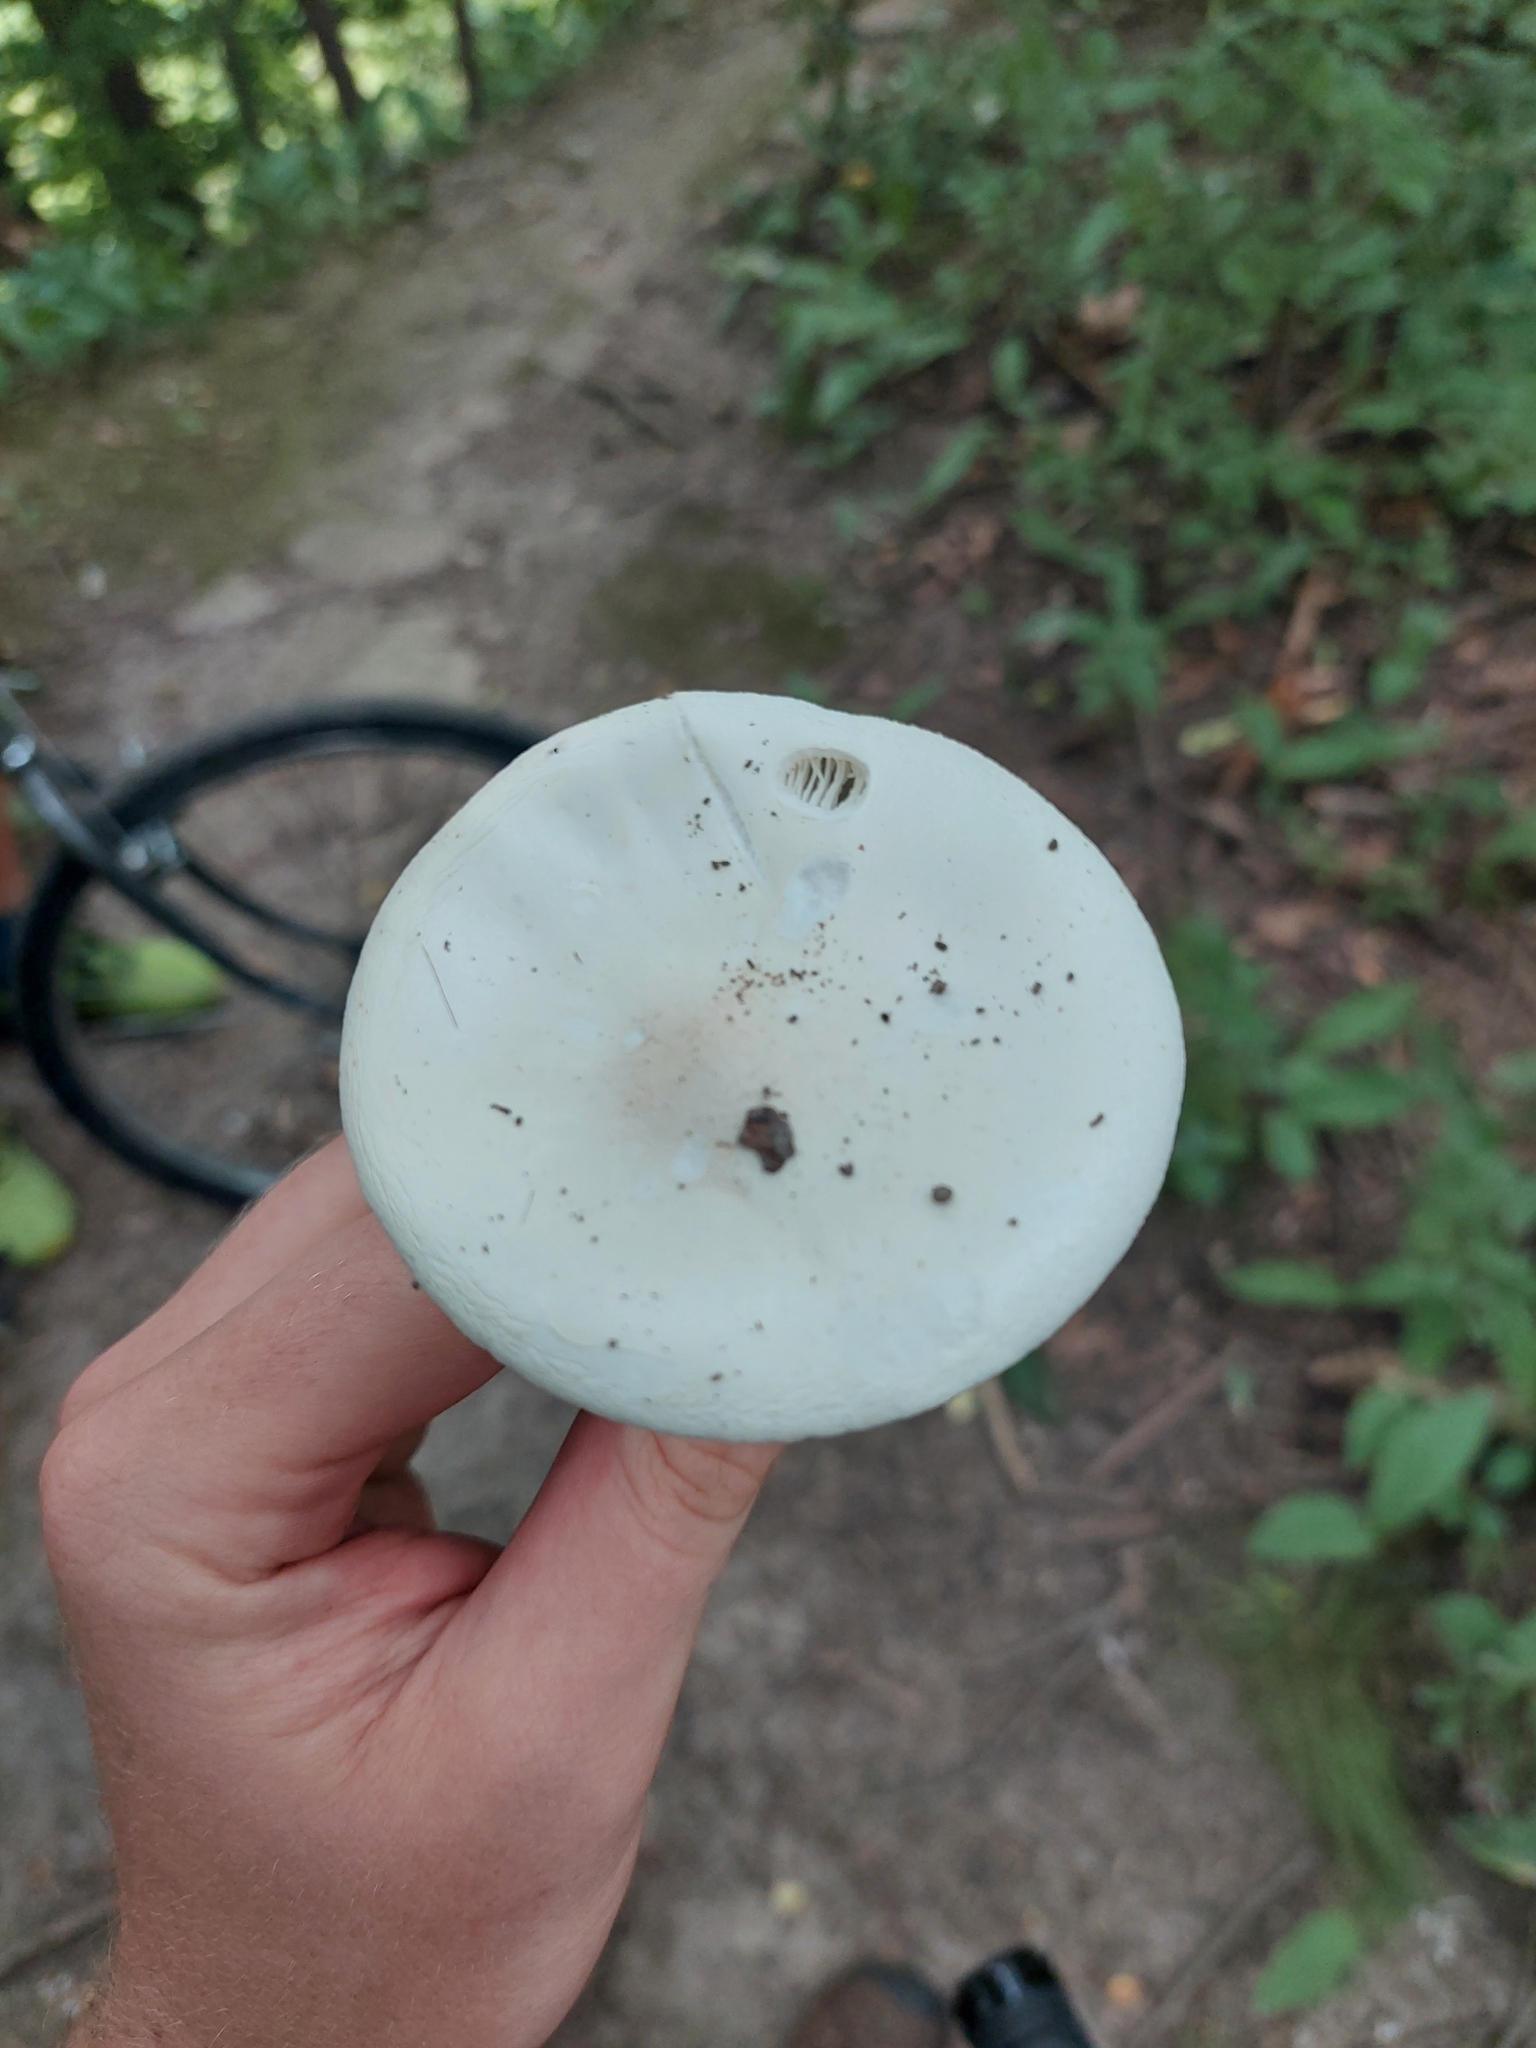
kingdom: Fungi
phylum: Basidiomycota
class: Agaricomycetes
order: Agaricales
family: Amanitaceae
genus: Amanita
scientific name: Amanita bisporigera
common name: Eastern north american destroying angel
